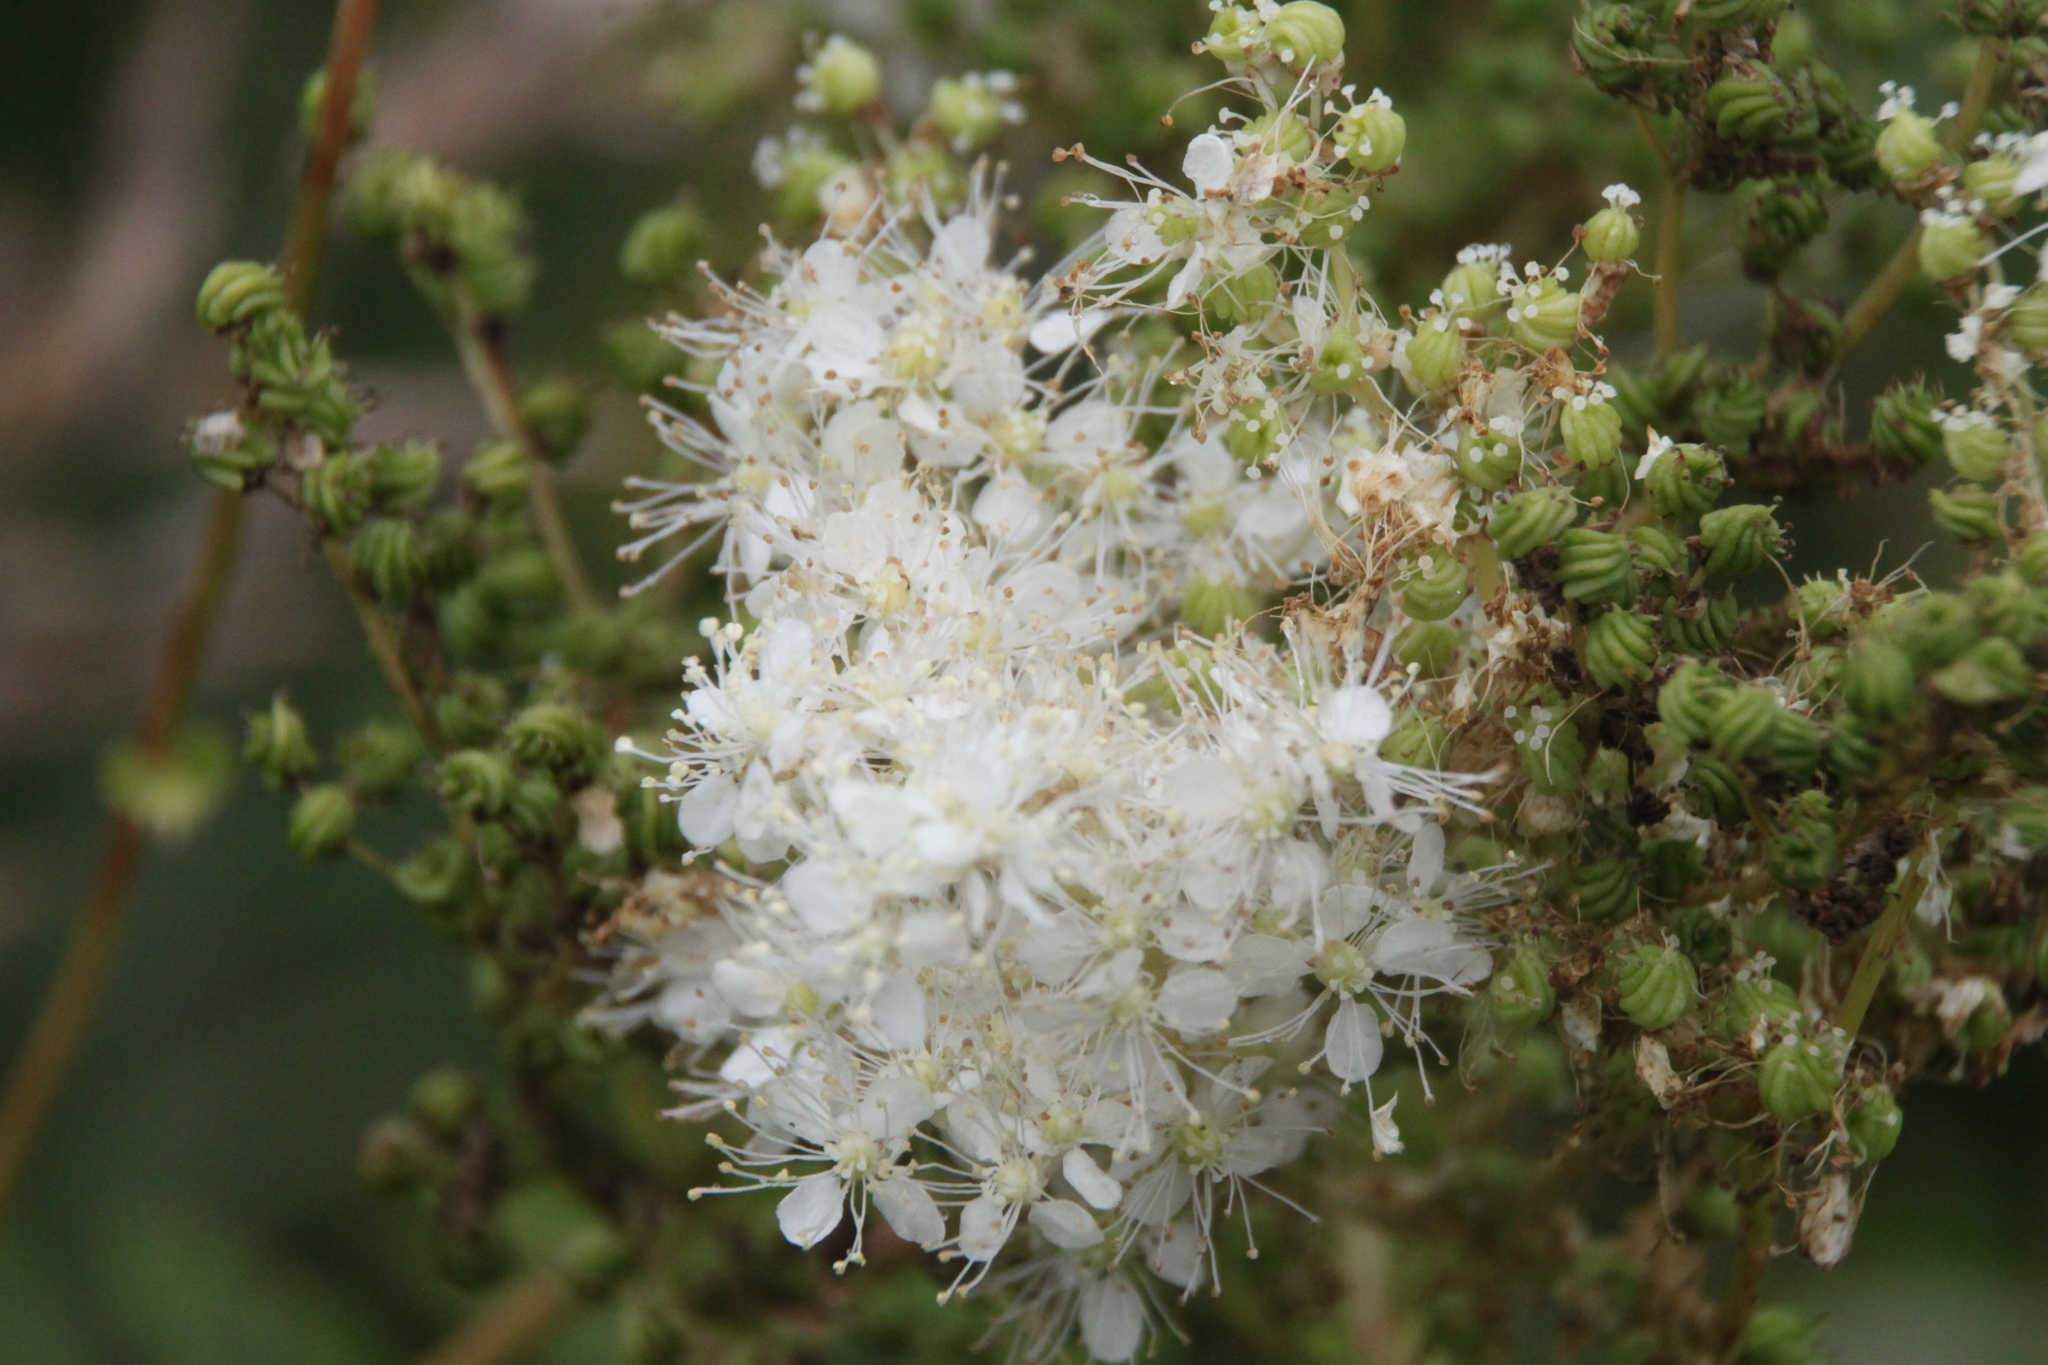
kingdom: Plantae
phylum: Tracheophyta
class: Magnoliopsida
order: Rosales
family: Rosaceae
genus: Filipendula
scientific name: Filipendula ulmaria
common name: Meadowsweet
